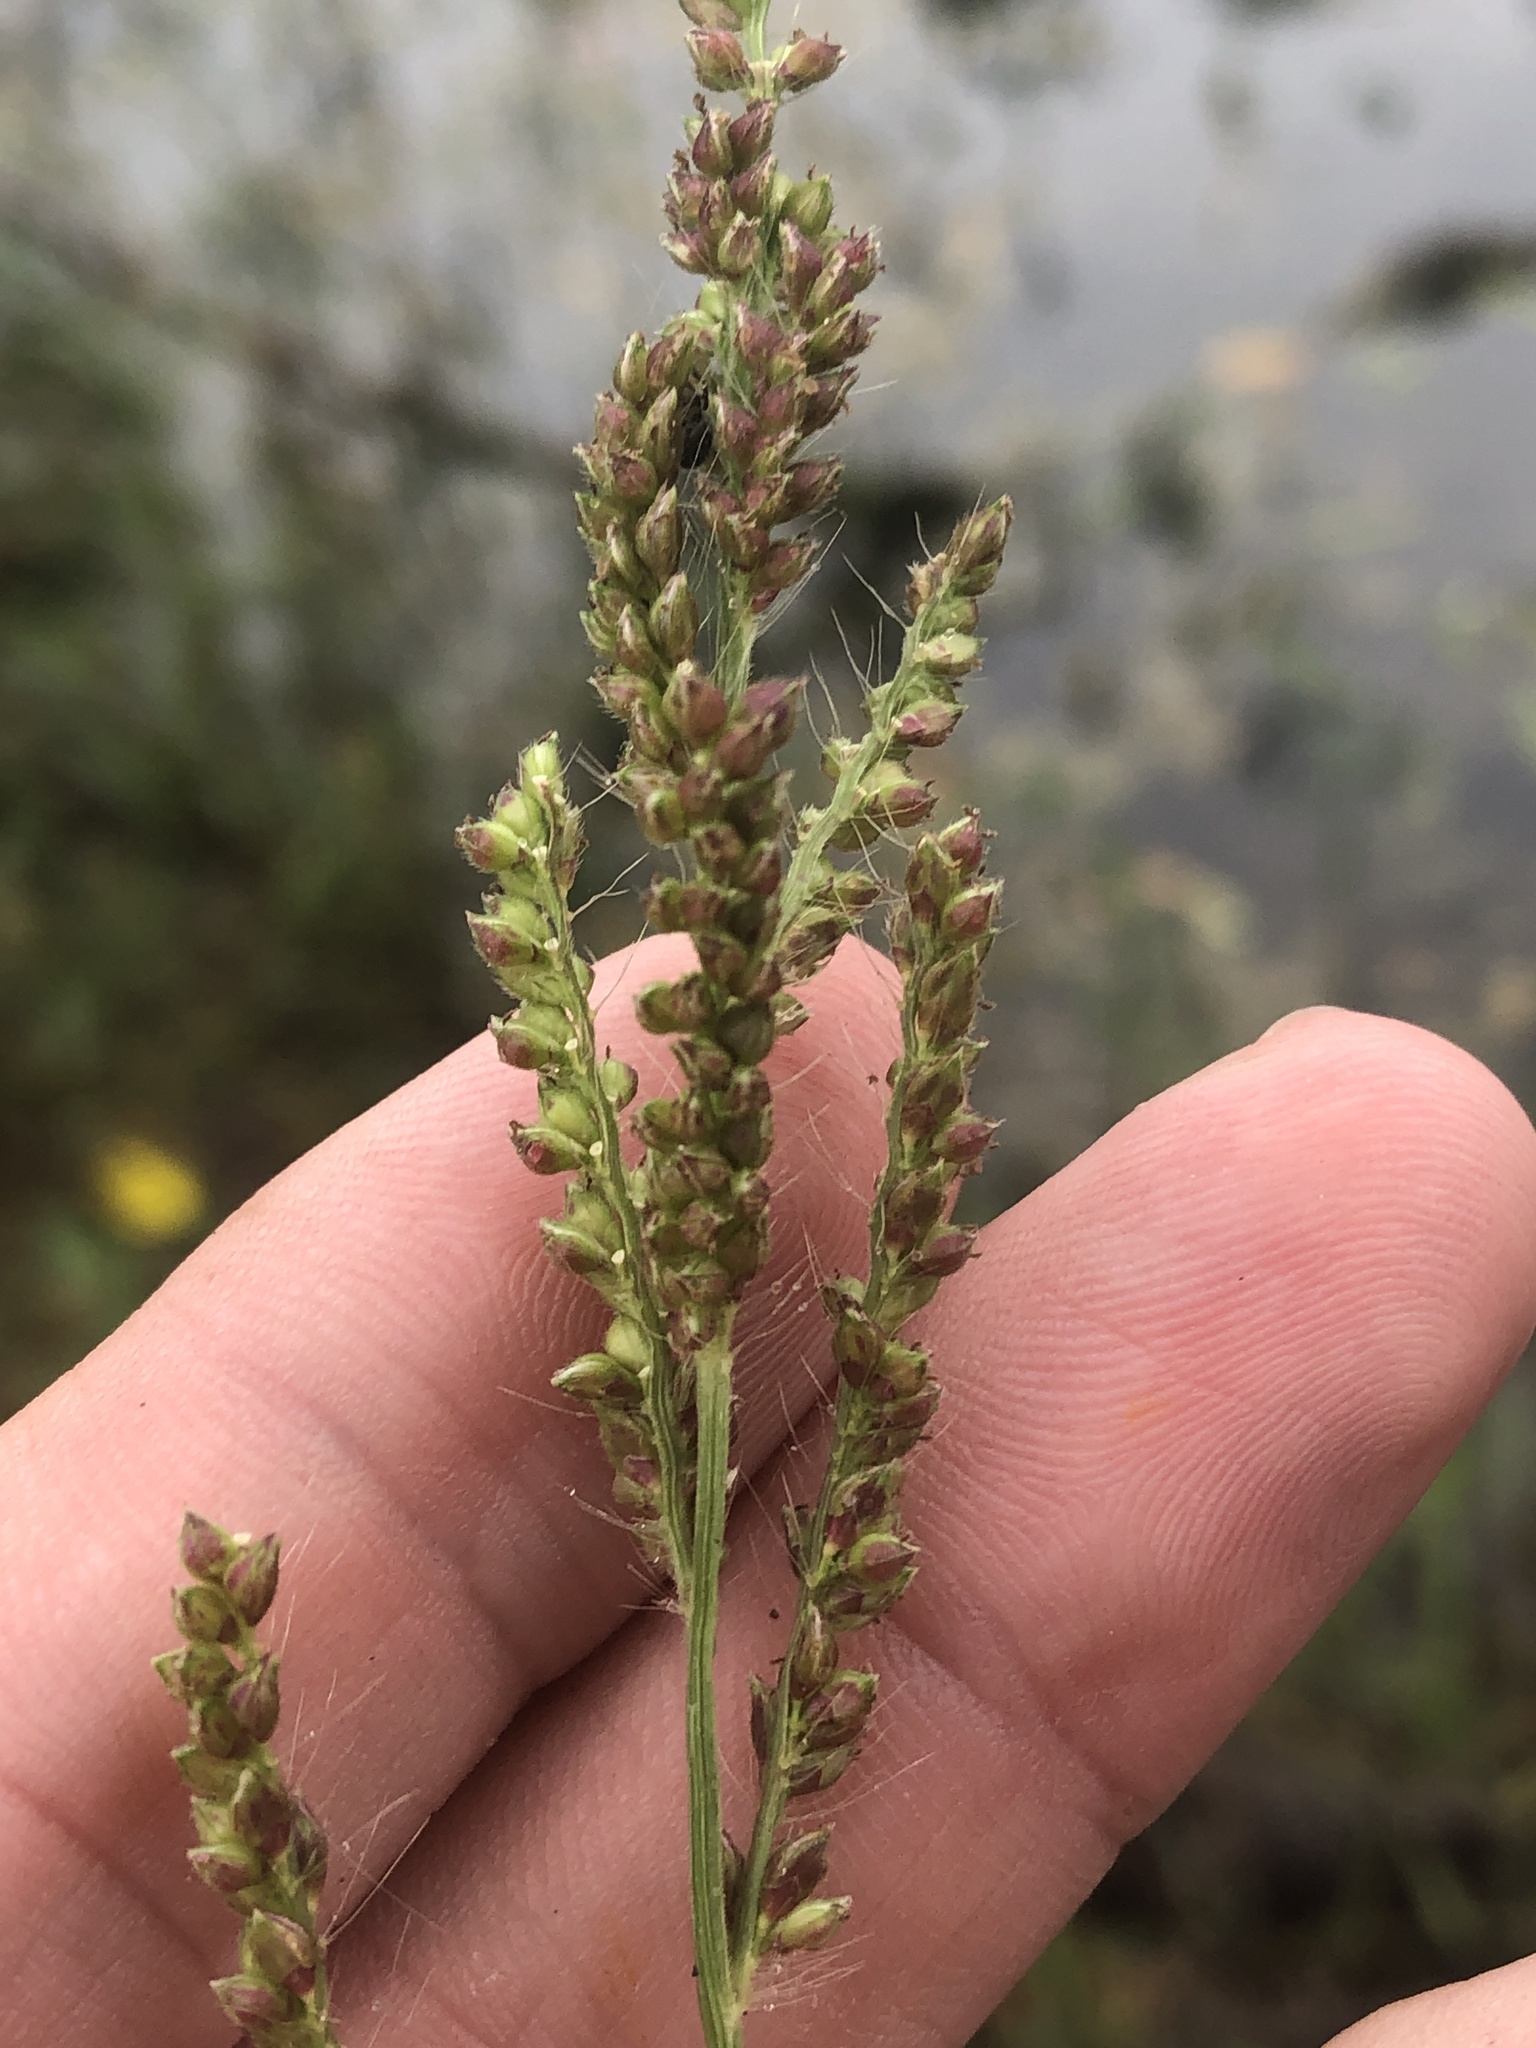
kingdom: Plantae
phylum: Tracheophyta
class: Liliopsida
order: Poales
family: Poaceae
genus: Echinochloa
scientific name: Echinochloa crus-galli
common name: Cockspur
